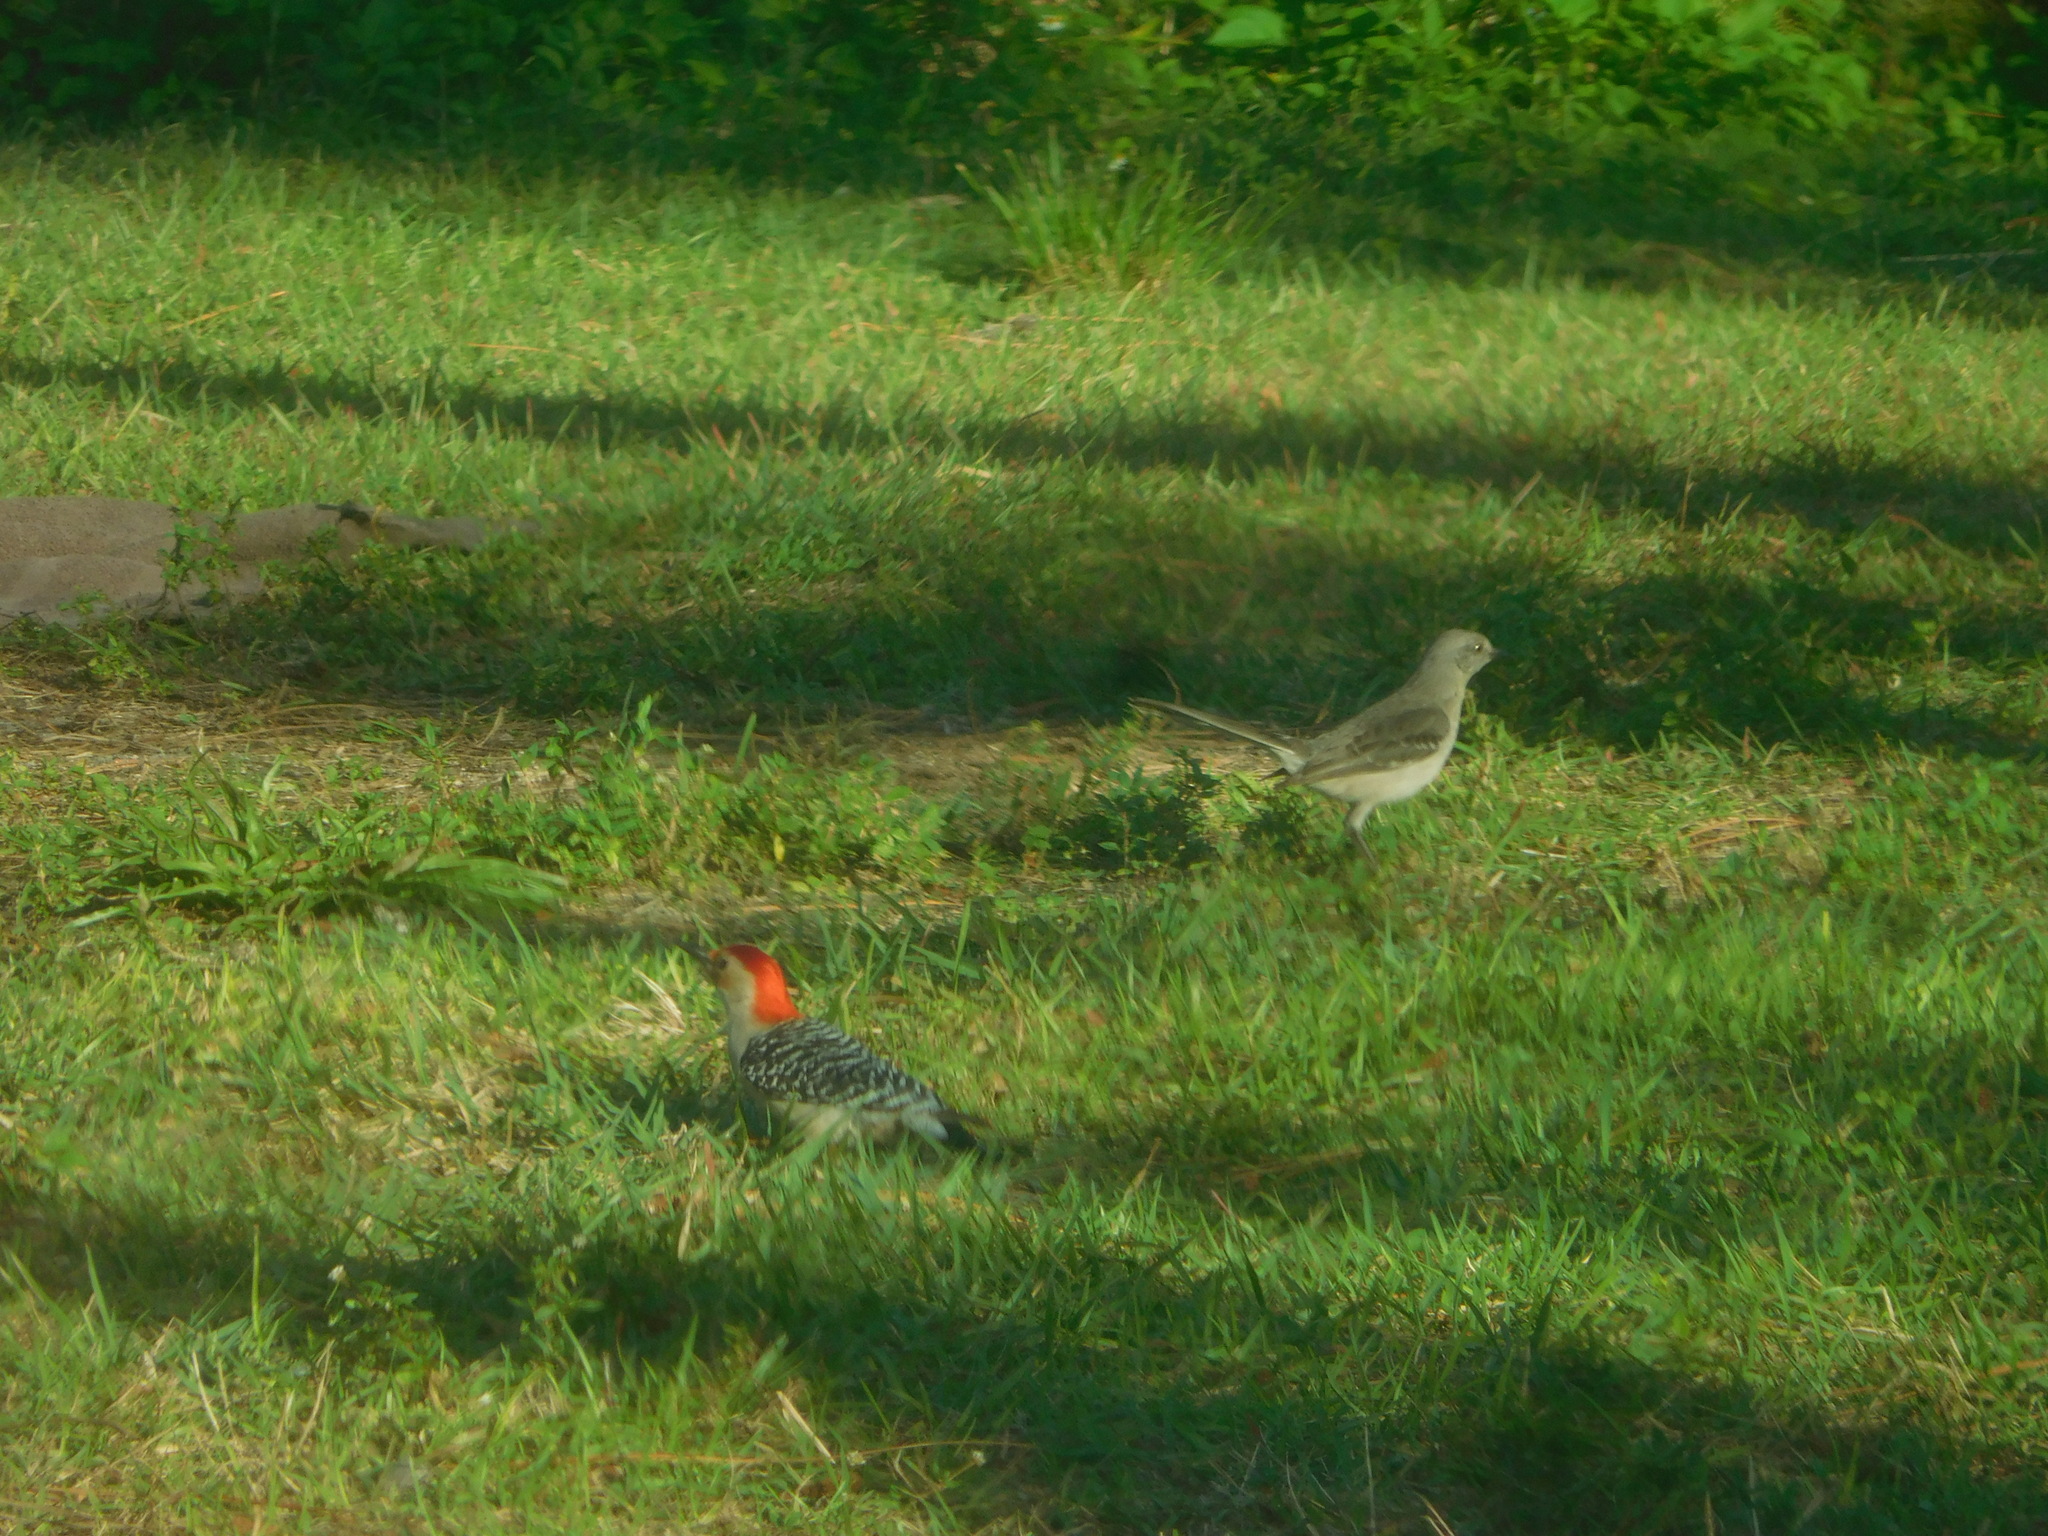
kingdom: Animalia
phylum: Chordata
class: Aves
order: Passeriformes
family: Mimidae
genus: Mimus
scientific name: Mimus polyglottos
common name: Northern mockingbird
